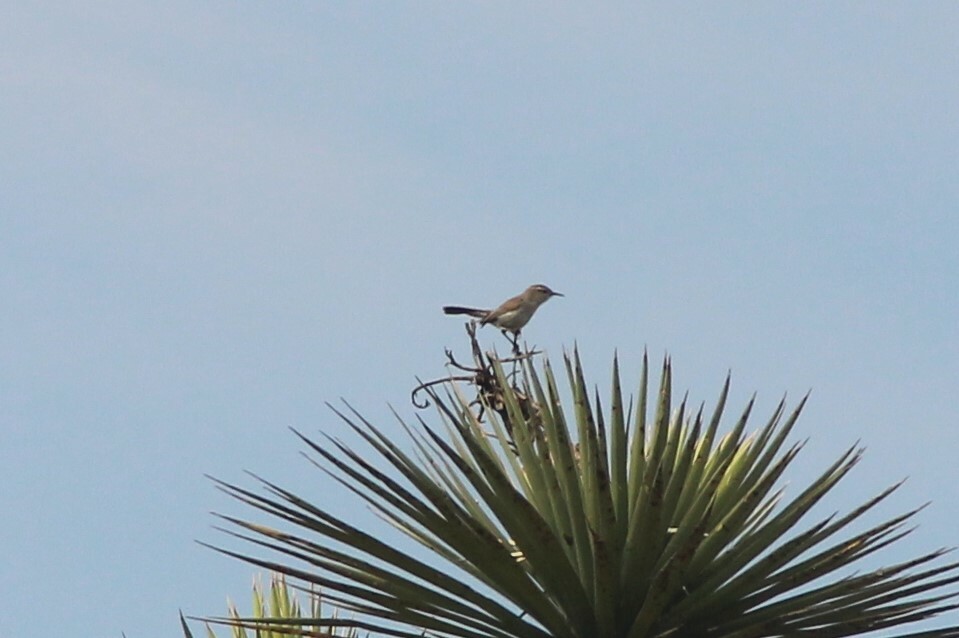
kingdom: Animalia
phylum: Chordata
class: Aves
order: Passeriformes
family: Troglodytidae
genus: Thryomanes
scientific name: Thryomanes bewickii
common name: Bewick's wren
